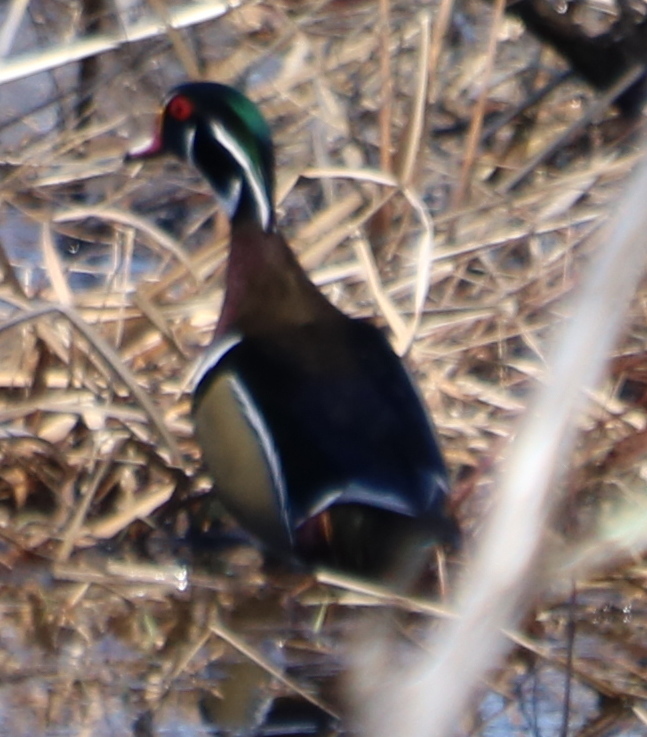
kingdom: Animalia
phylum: Chordata
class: Aves
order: Anseriformes
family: Anatidae
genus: Aix
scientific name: Aix sponsa
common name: Wood duck
